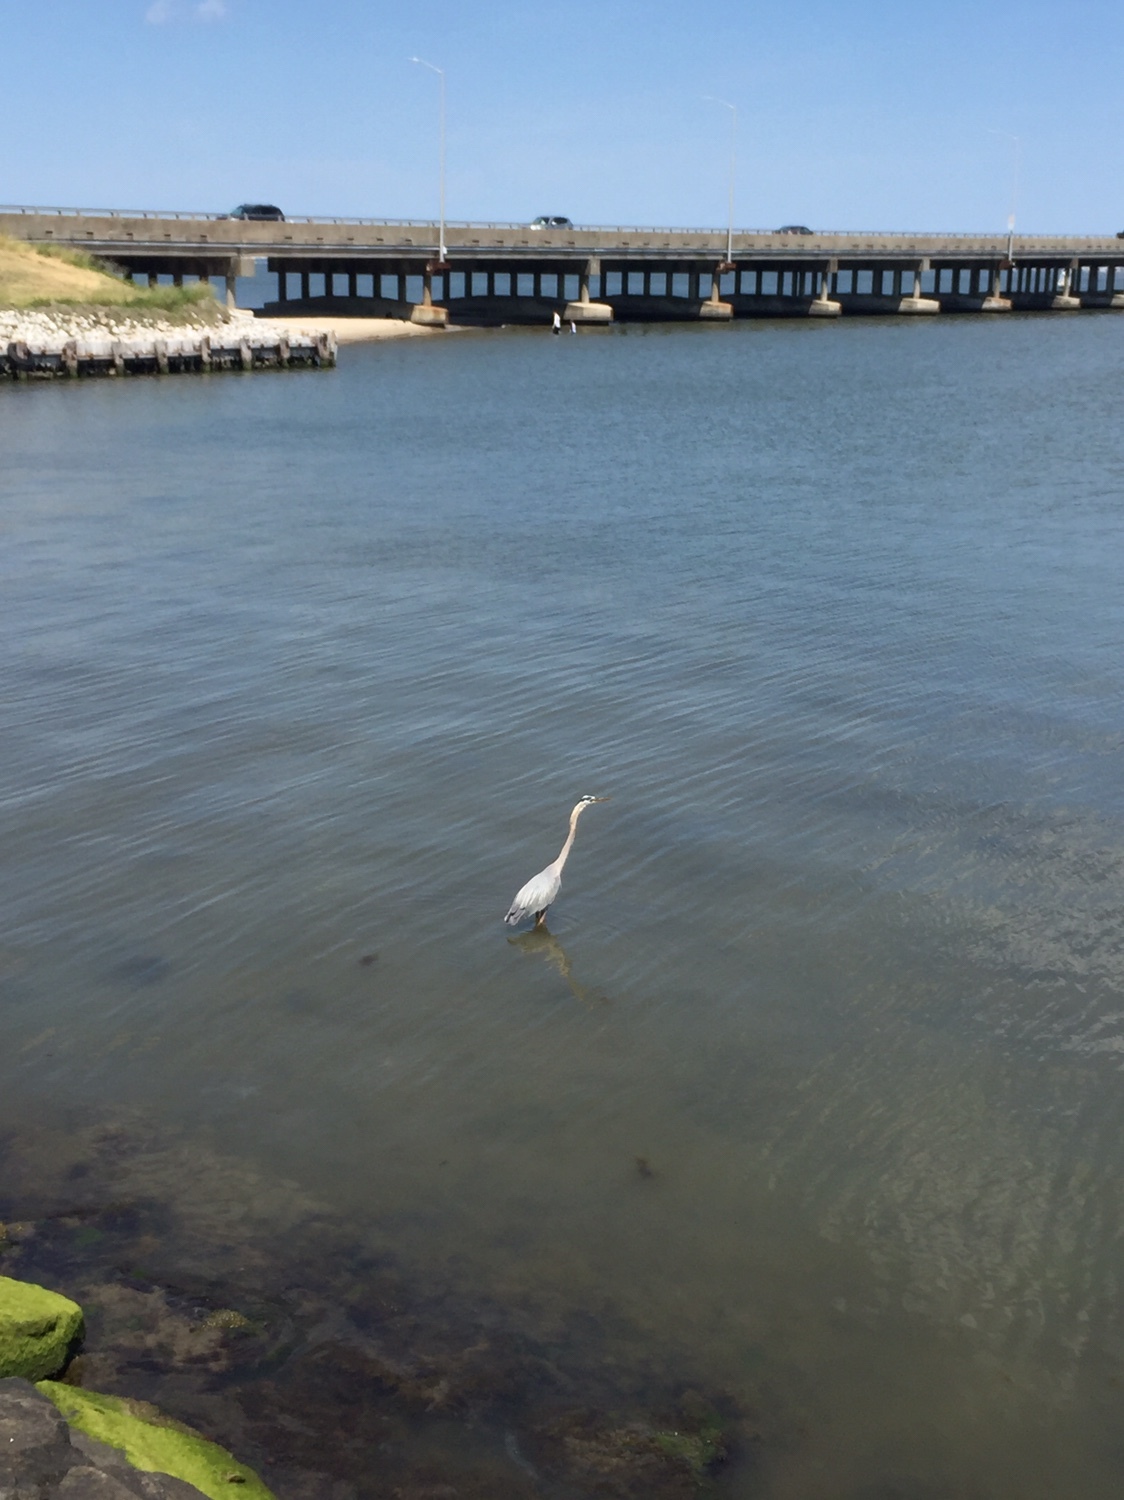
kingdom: Animalia
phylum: Chordata
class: Aves
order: Pelecaniformes
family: Ardeidae
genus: Ardea
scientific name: Ardea herodias
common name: Great blue heron
